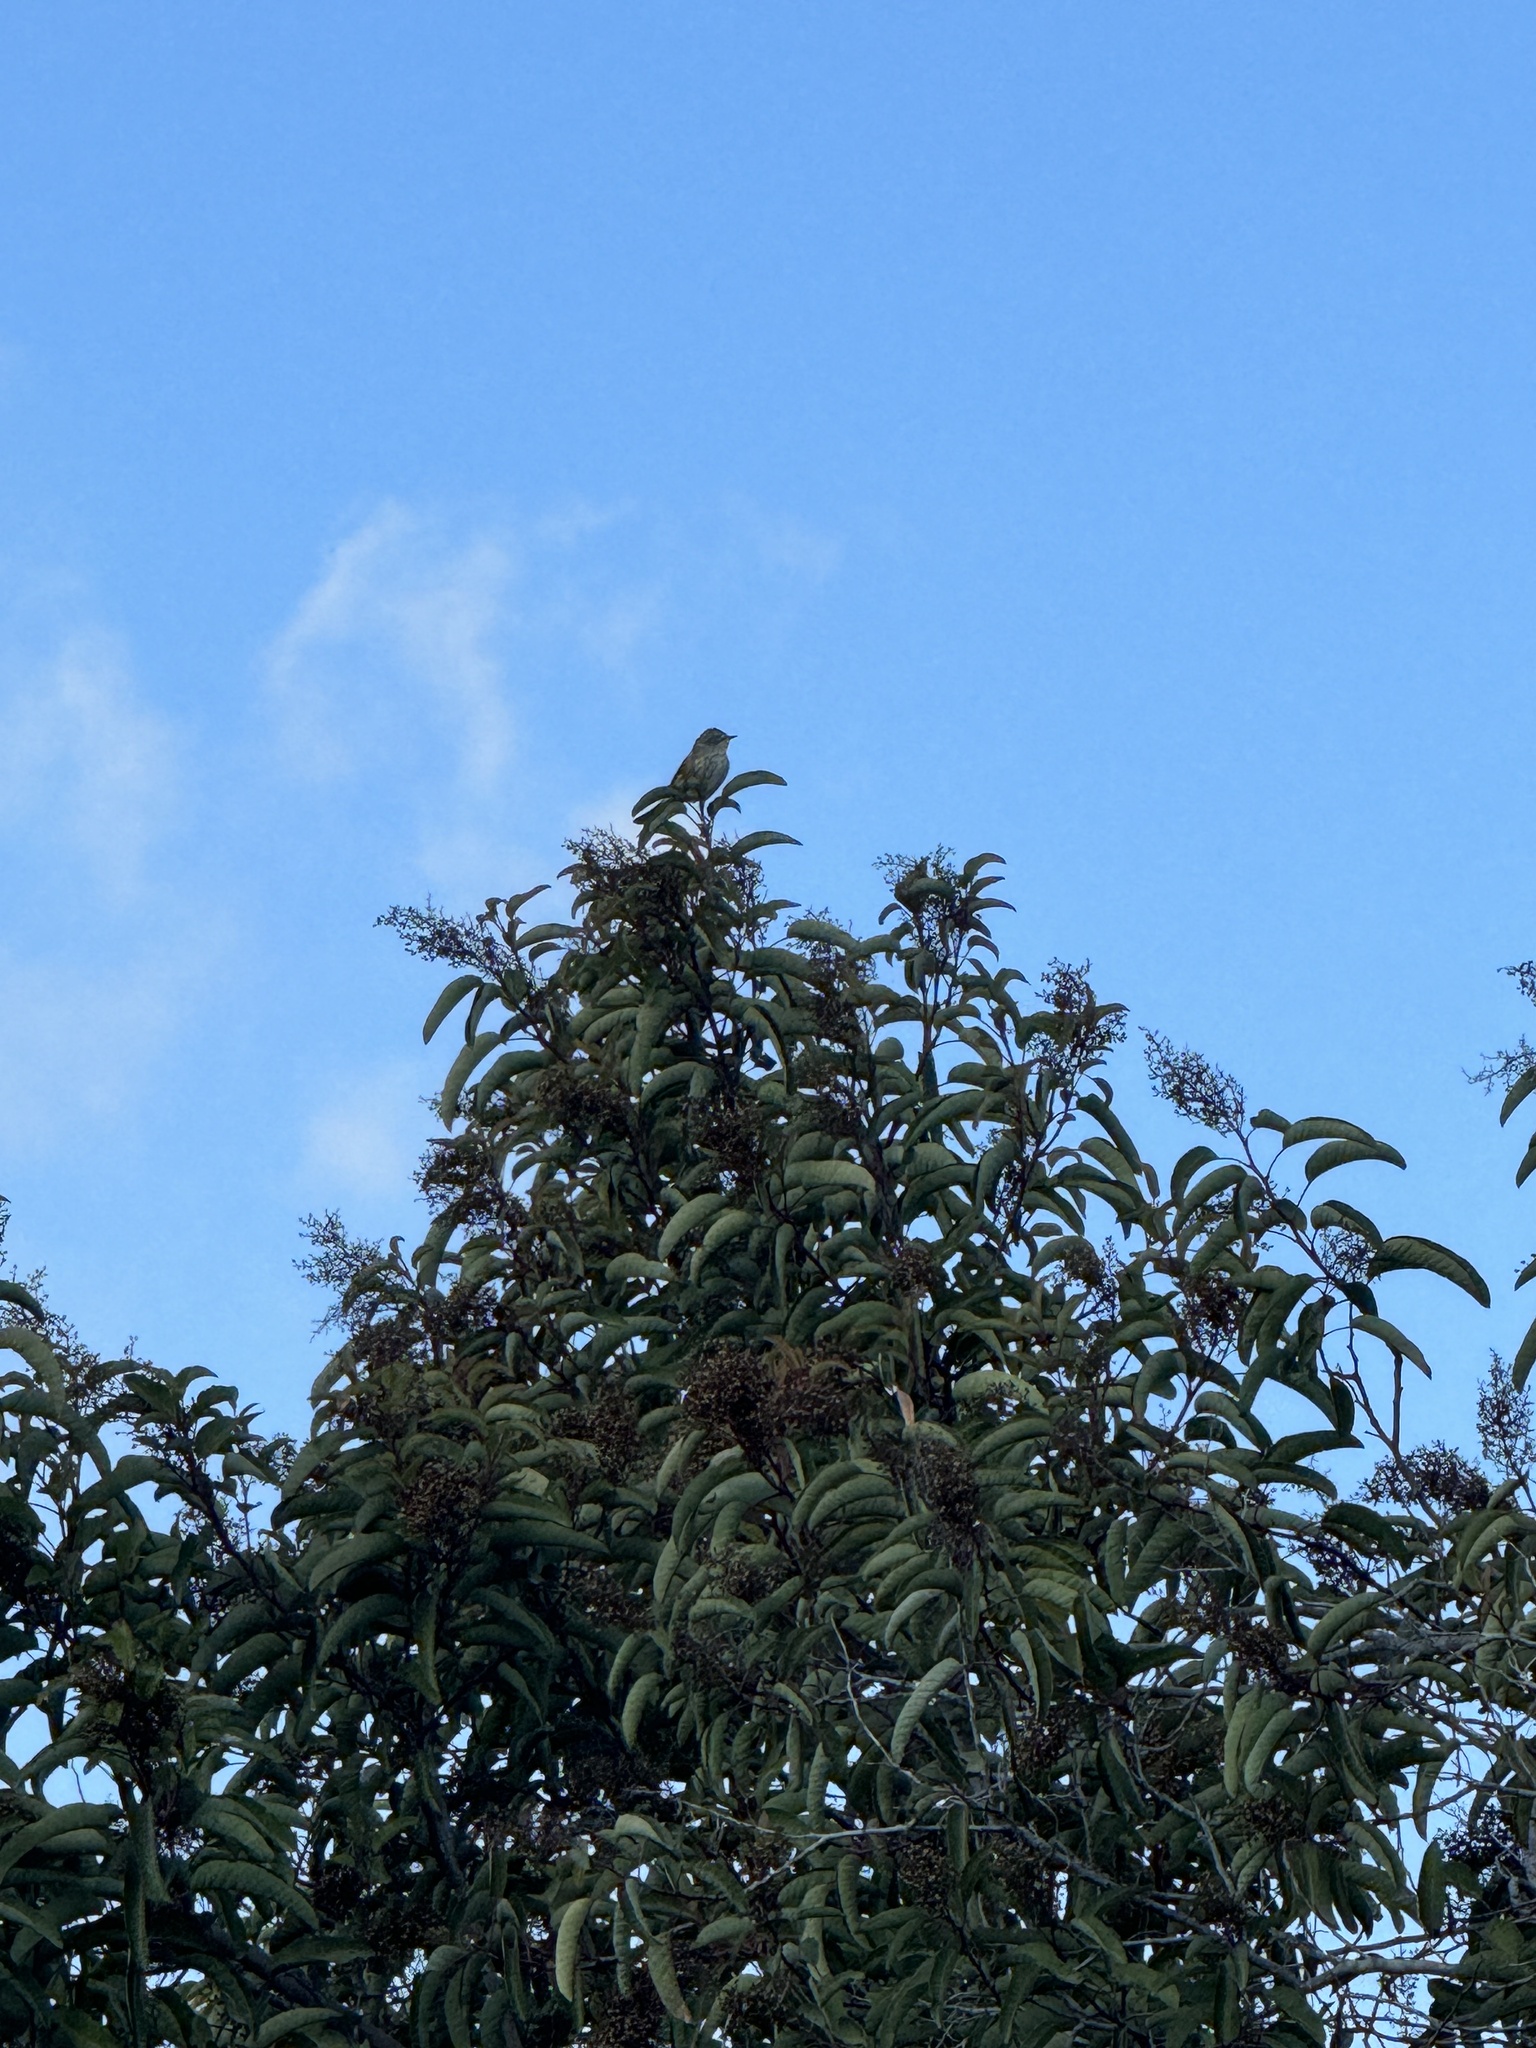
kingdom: Animalia
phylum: Chordata
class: Aves
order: Passeriformes
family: Parulidae
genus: Setophaga
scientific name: Setophaga coronata
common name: Myrtle warbler
